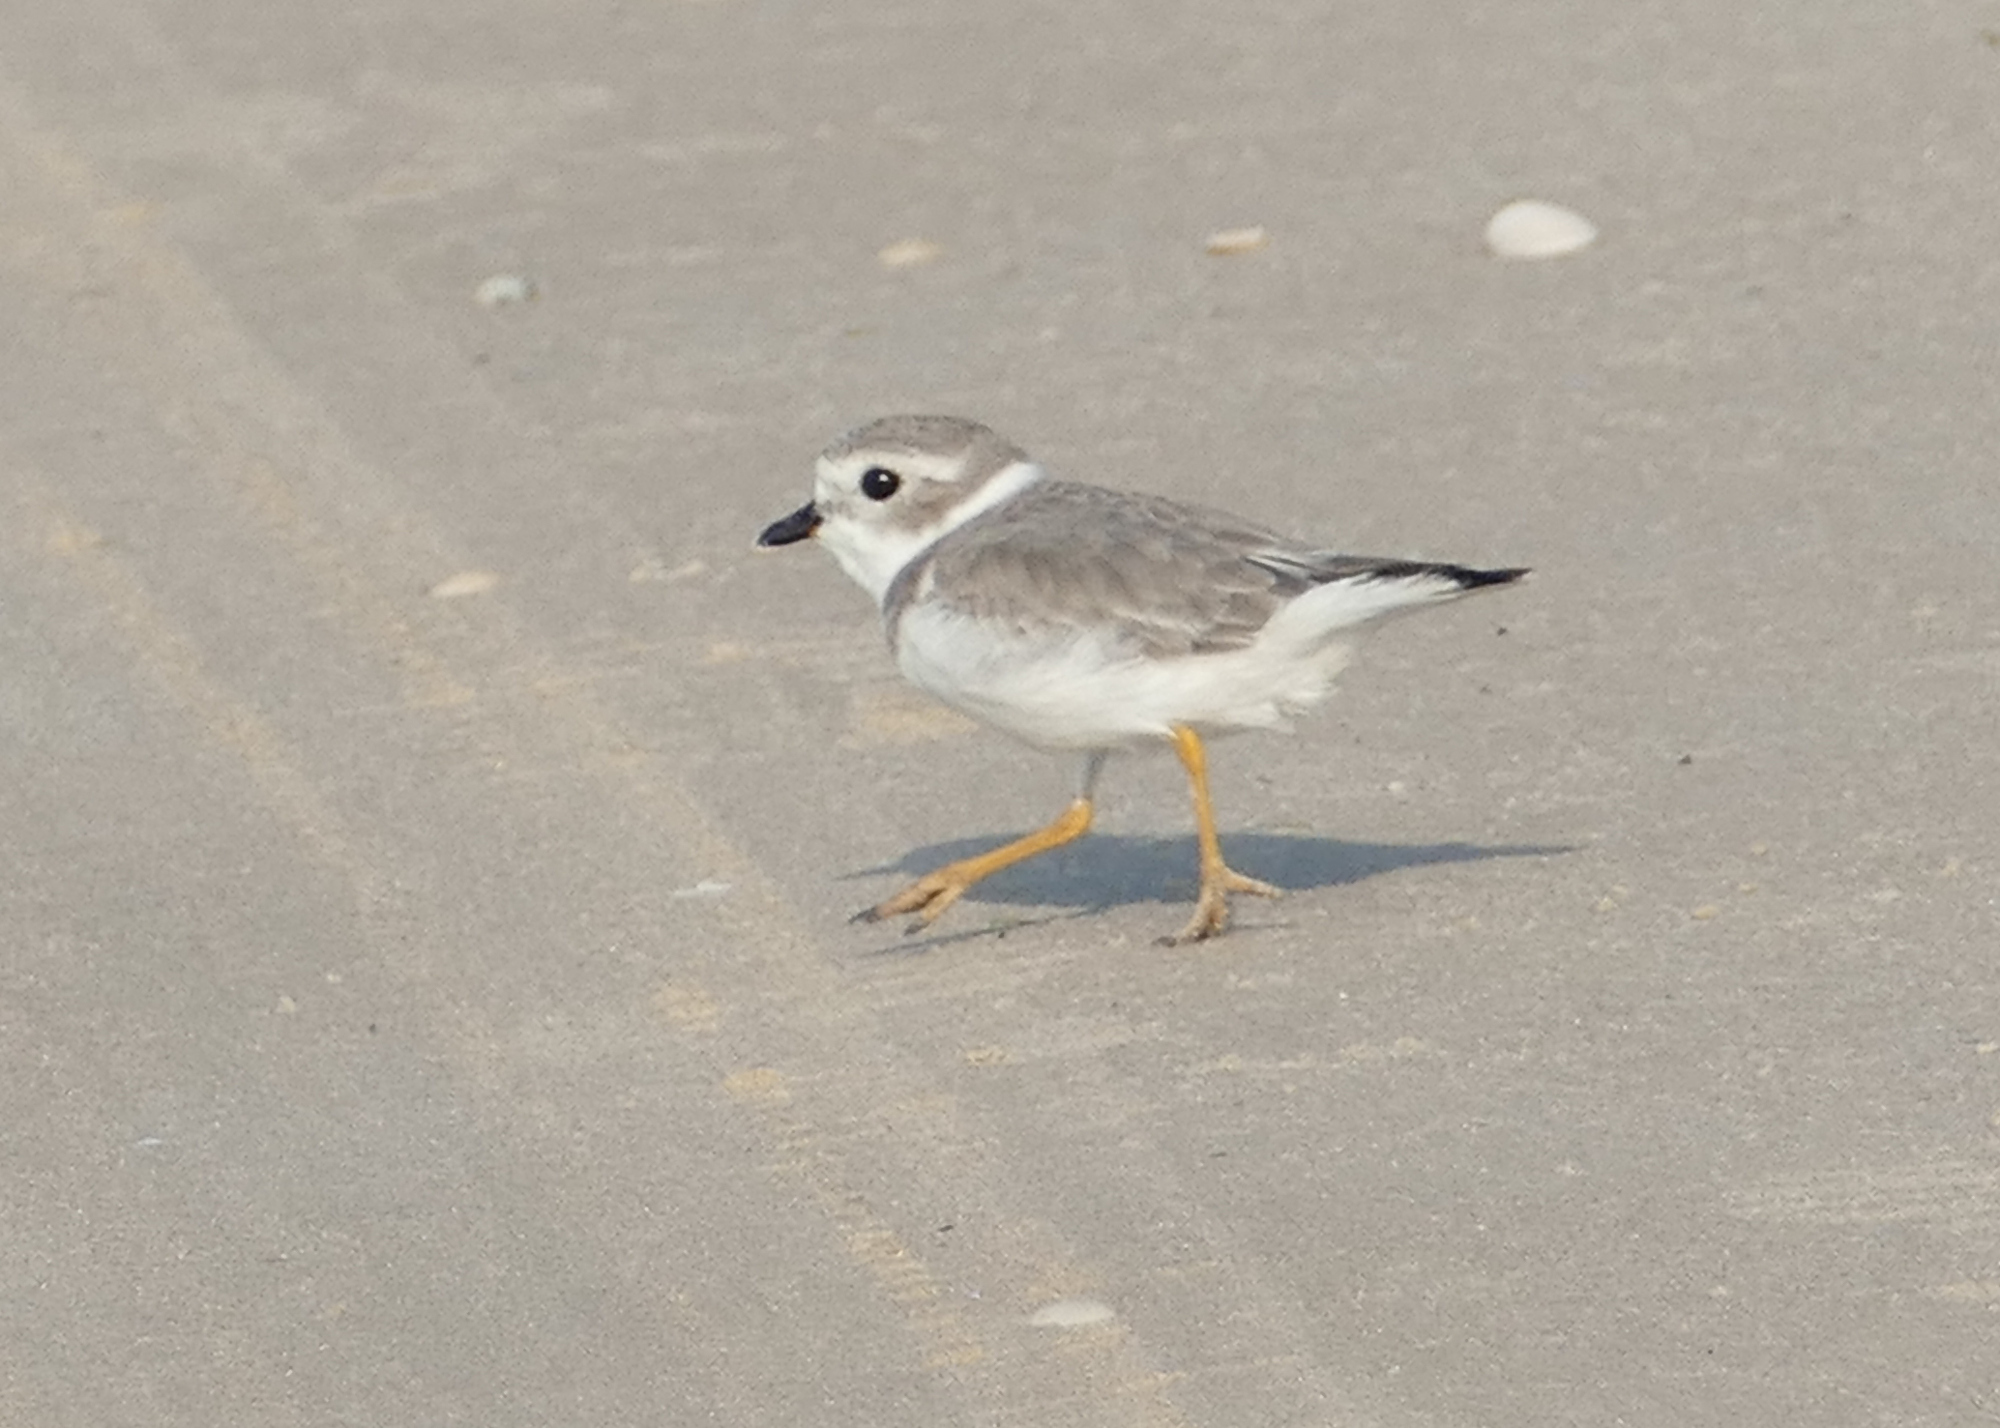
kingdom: Animalia
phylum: Chordata
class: Aves
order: Charadriiformes
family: Charadriidae
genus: Charadrius
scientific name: Charadrius melodus
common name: Piping plover
